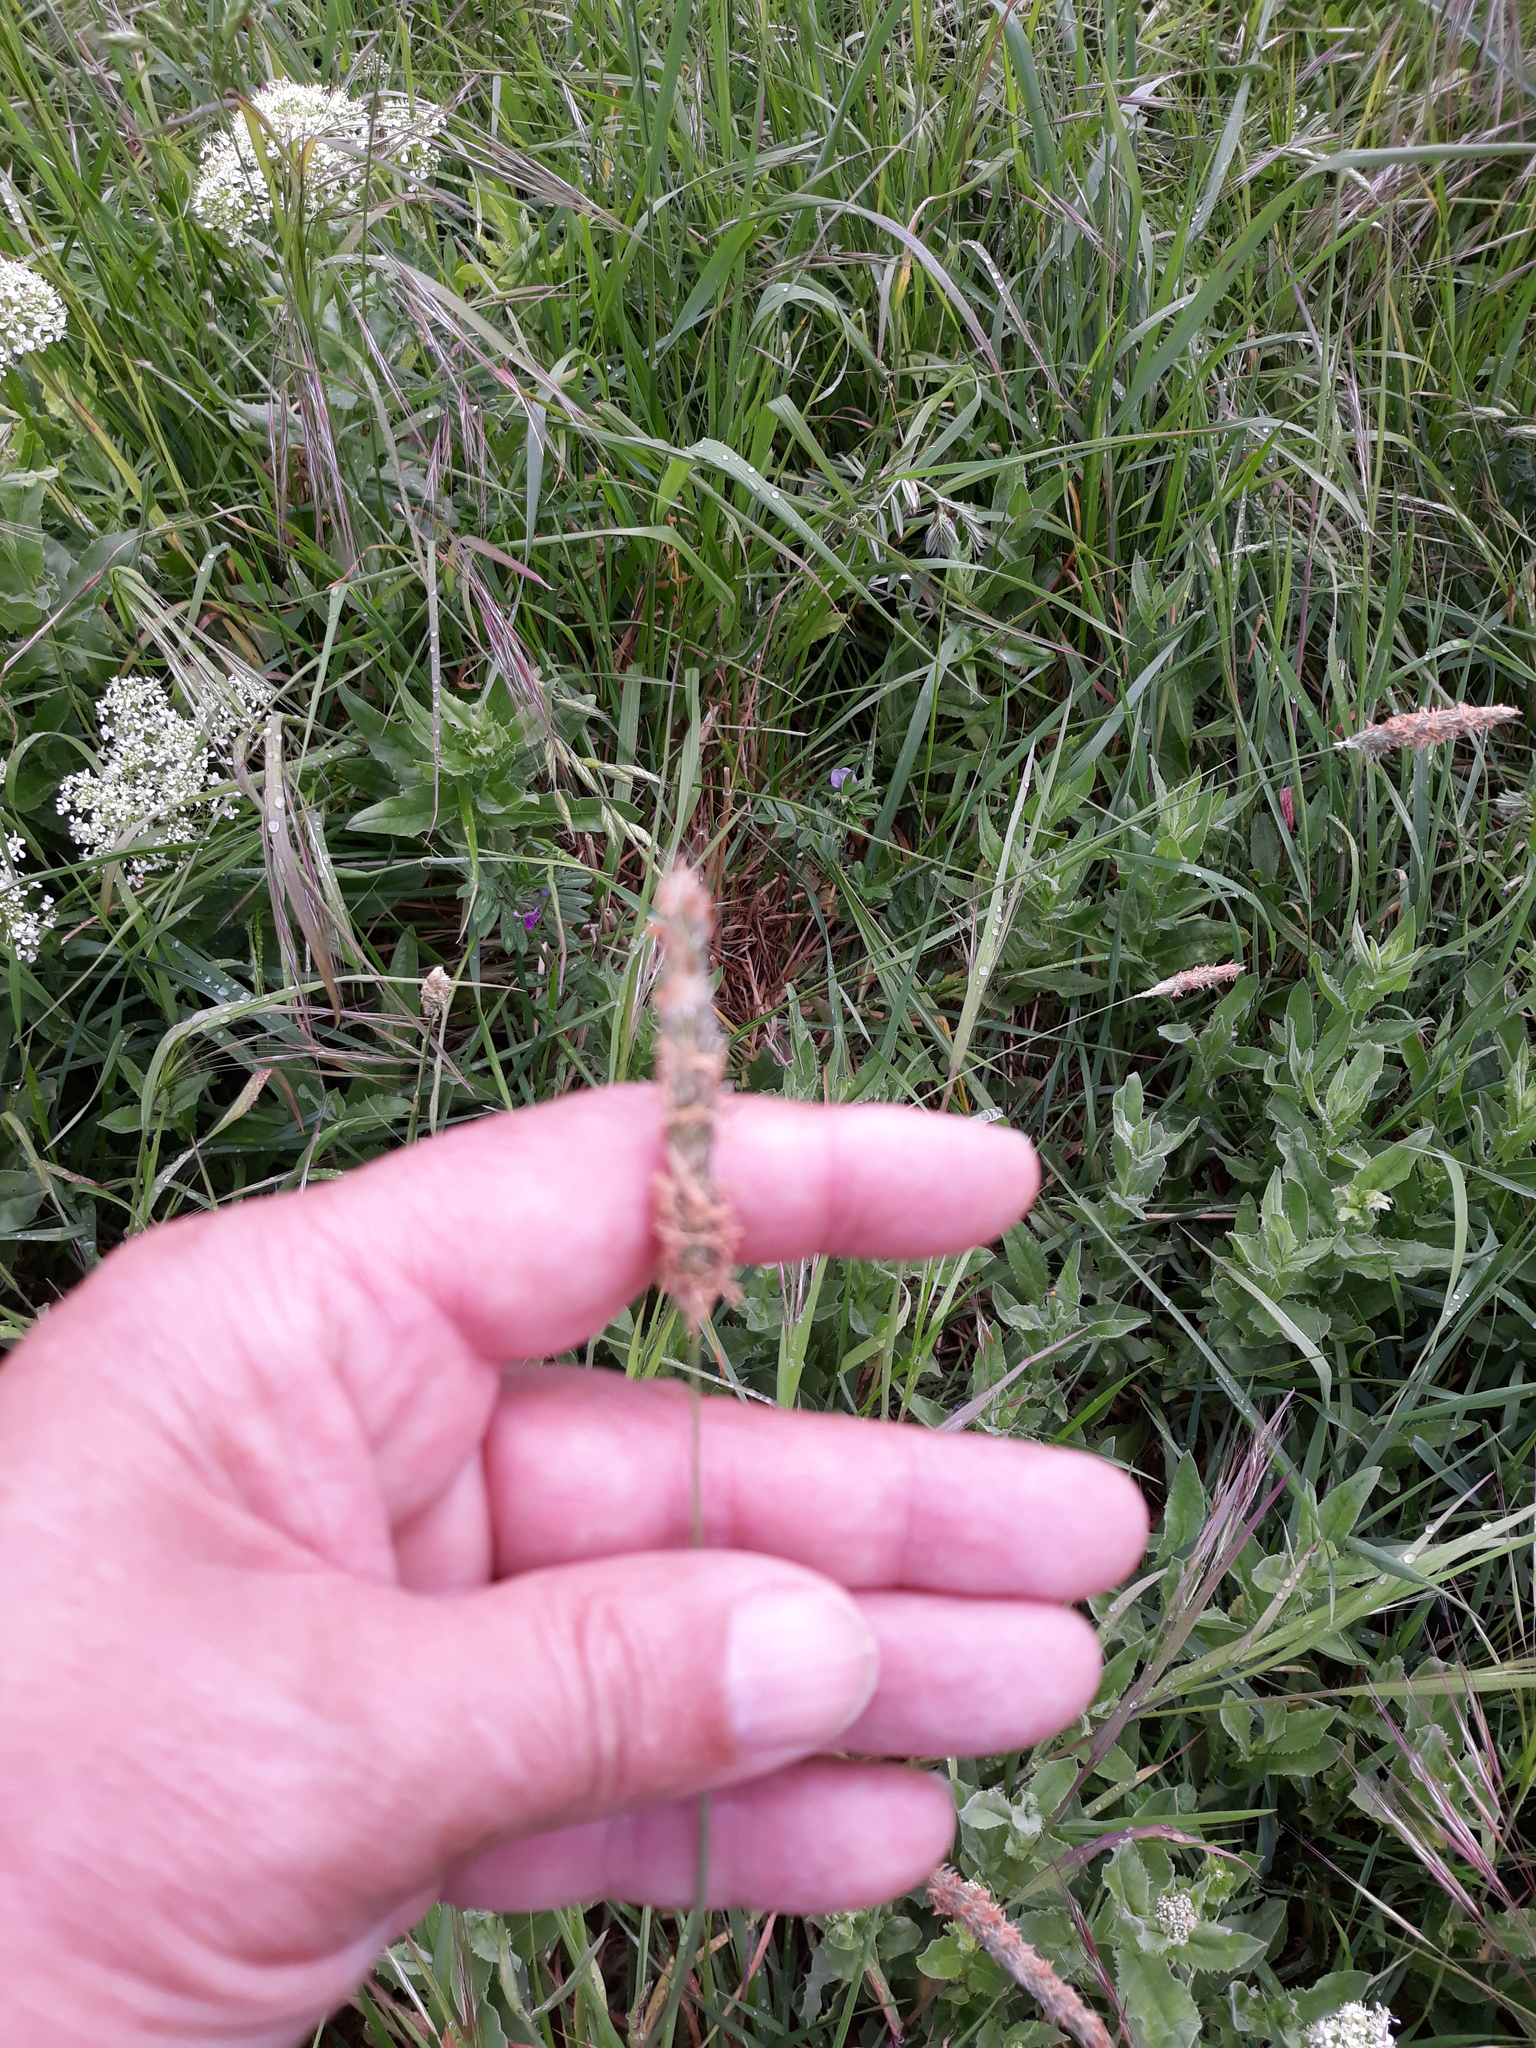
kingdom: Plantae
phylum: Tracheophyta
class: Liliopsida
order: Poales
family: Poaceae
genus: Alopecurus
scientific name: Alopecurus pratensis
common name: Meadow foxtail
